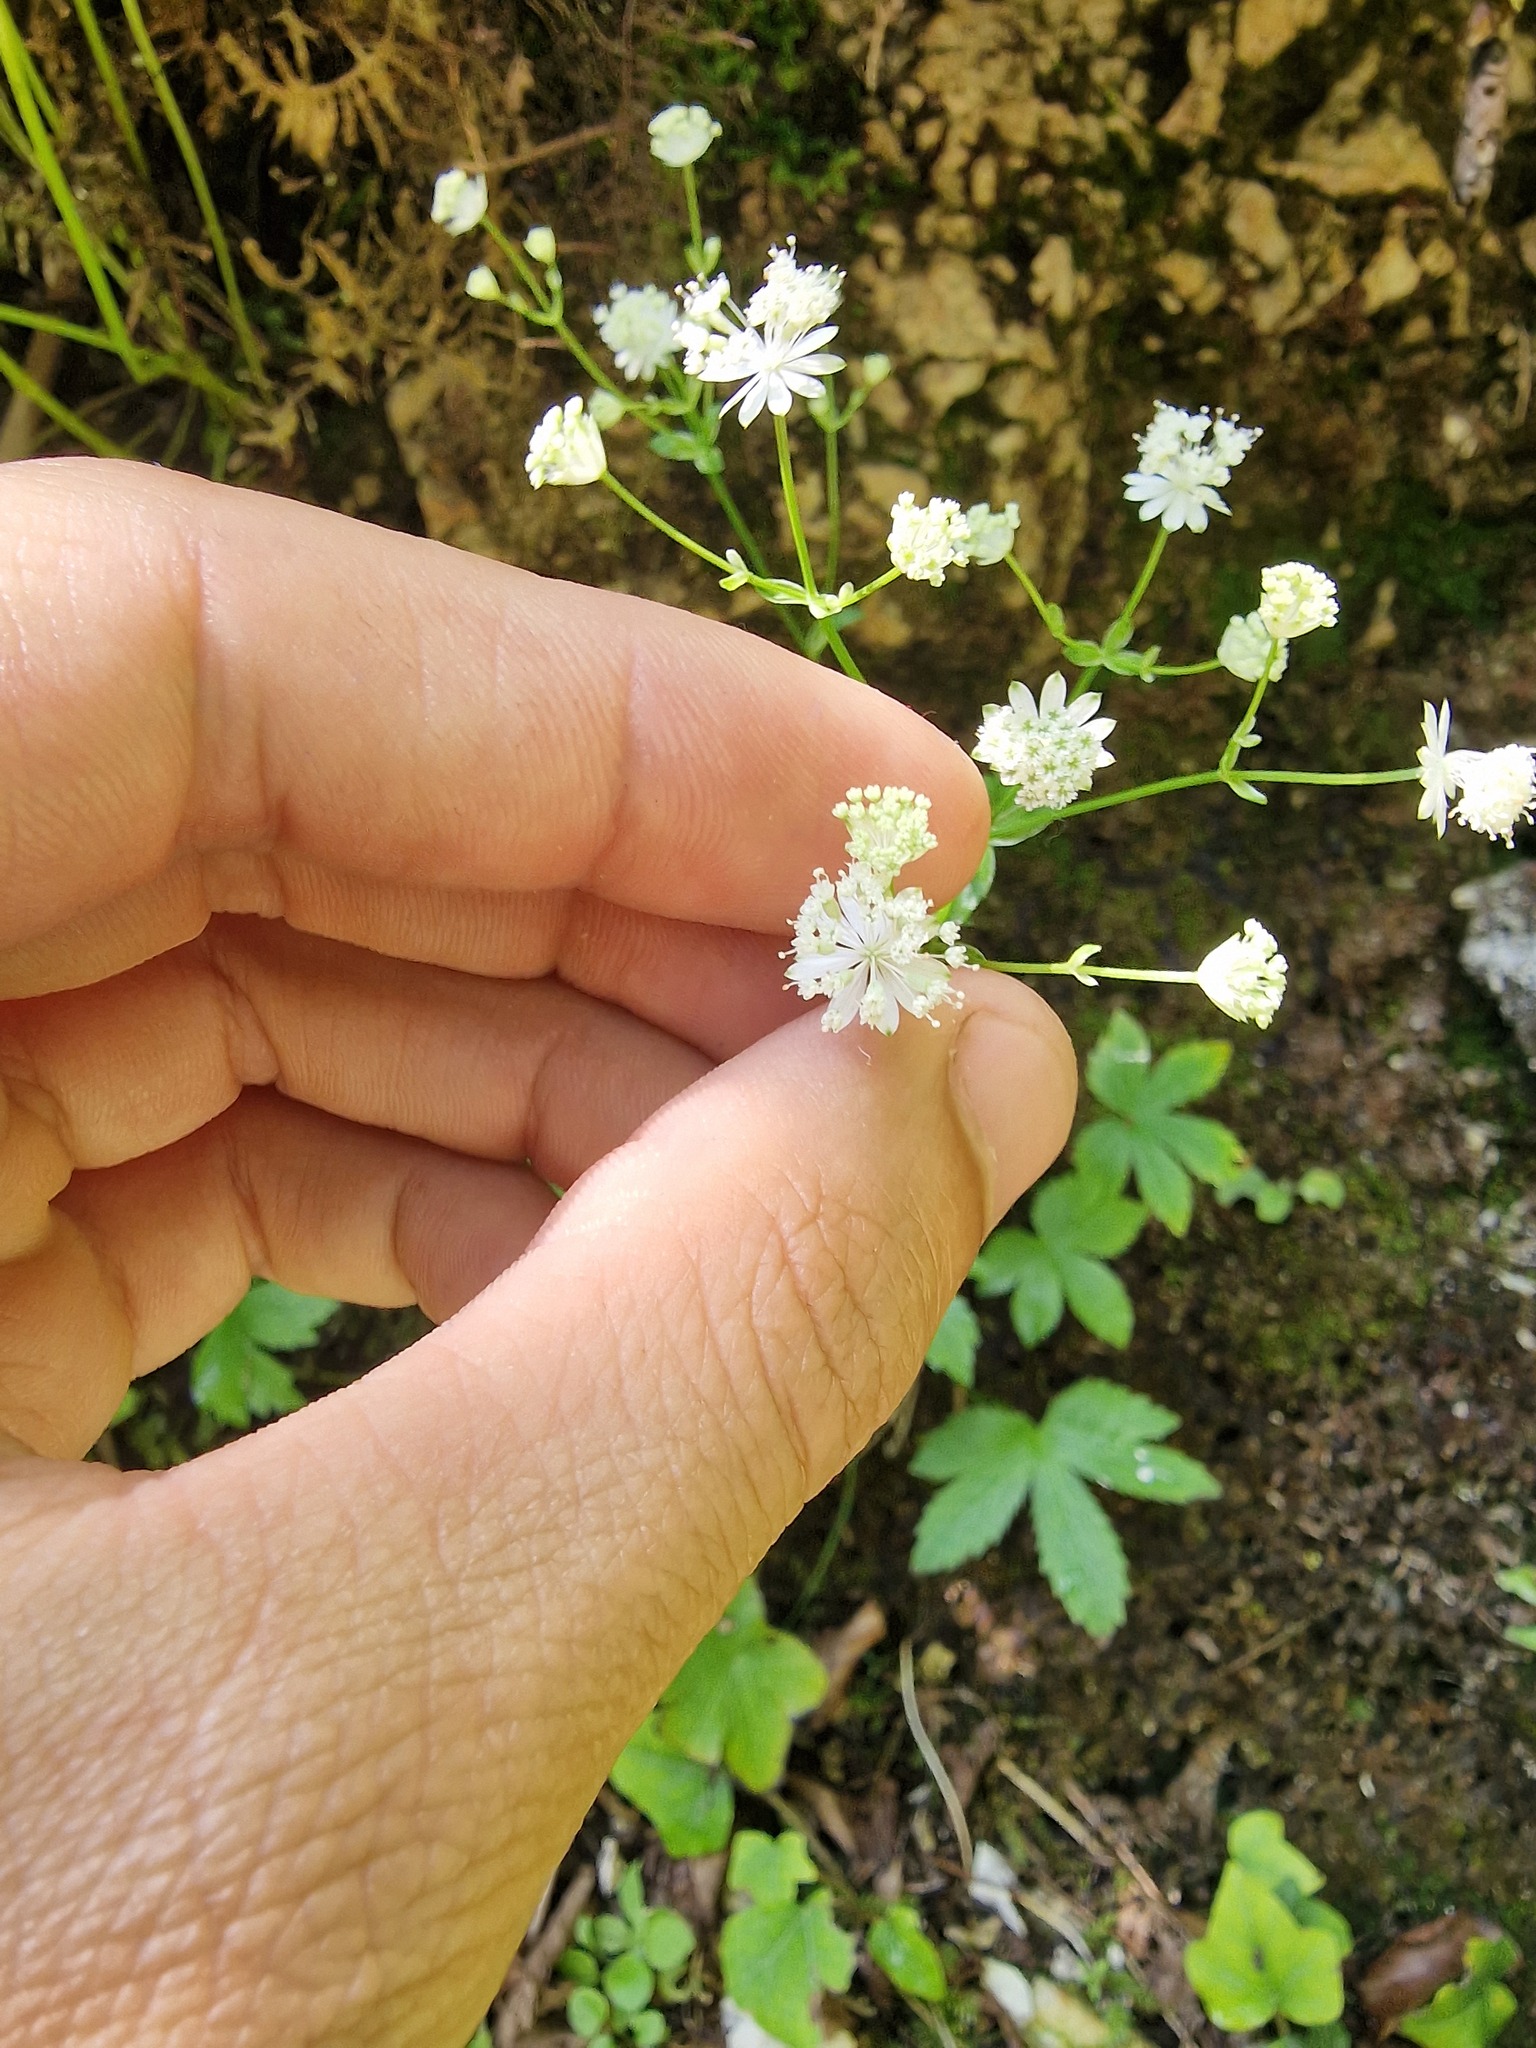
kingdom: Plantae
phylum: Tracheophyta
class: Magnoliopsida
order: Apiales
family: Apiaceae
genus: Astrantia
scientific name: Astrantia carniolica
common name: Carnic masterwort
